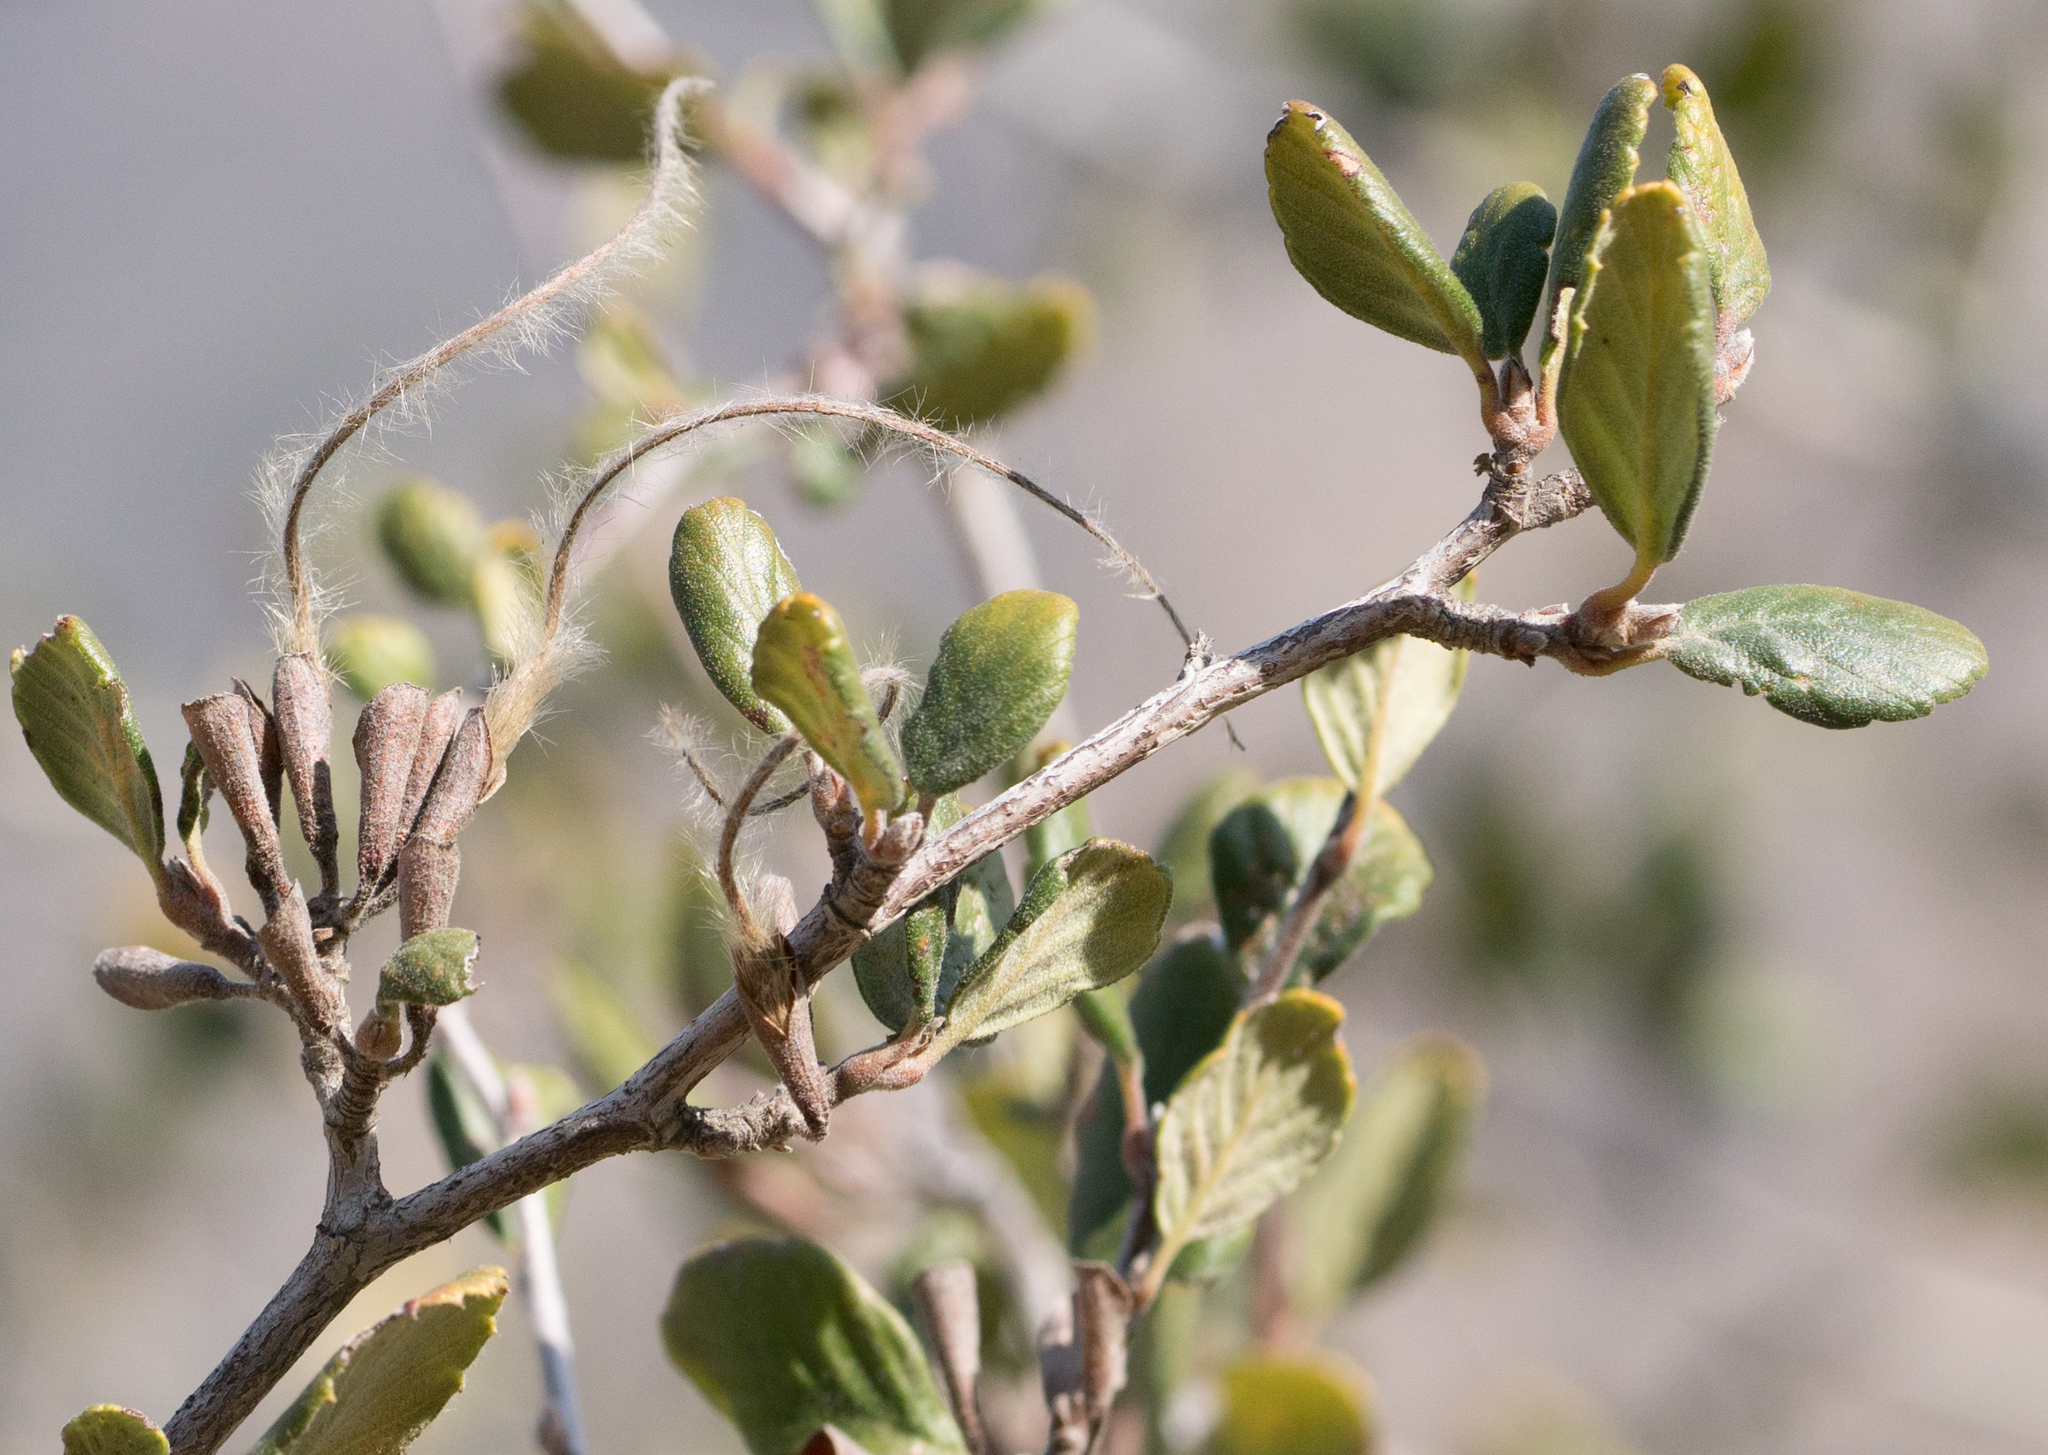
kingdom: Plantae
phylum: Tracheophyta
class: Magnoliopsida
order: Rosales
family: Rosaceae
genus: Cercocarpus
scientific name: Cercocarpus betuloides
